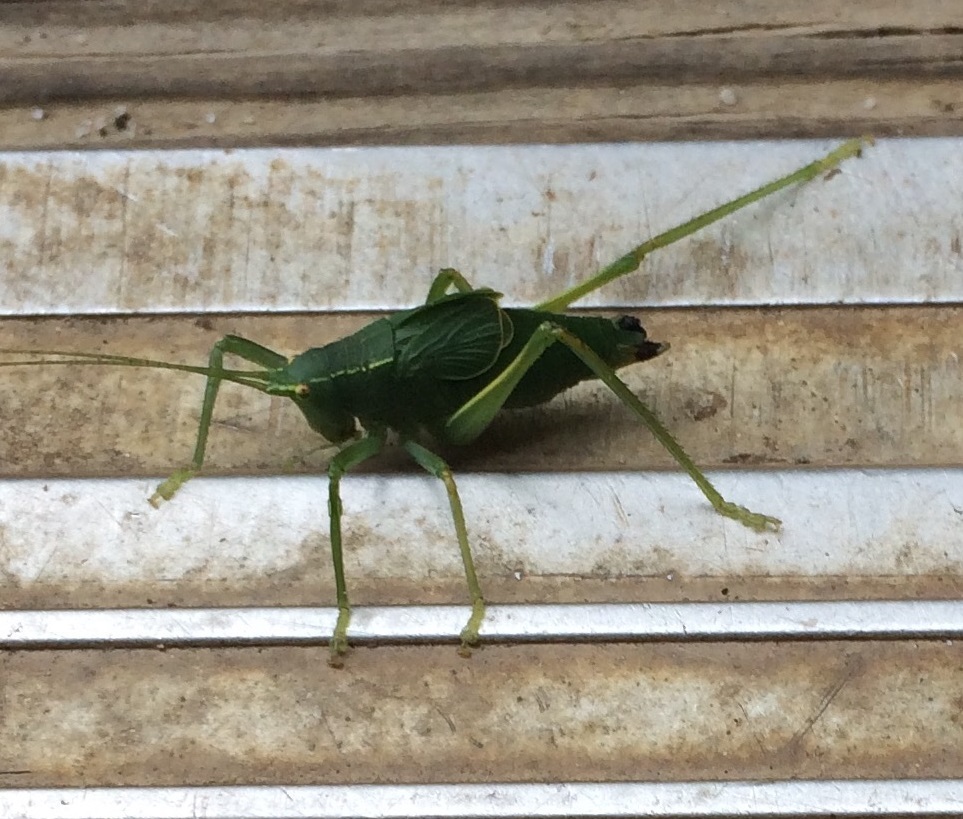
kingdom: Animalia
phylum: Arthropoda
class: Insecta
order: Orthoptera
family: Tettigoniidae
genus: Pterophylla
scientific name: Pterophylla camellifolia
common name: Common true katydid
